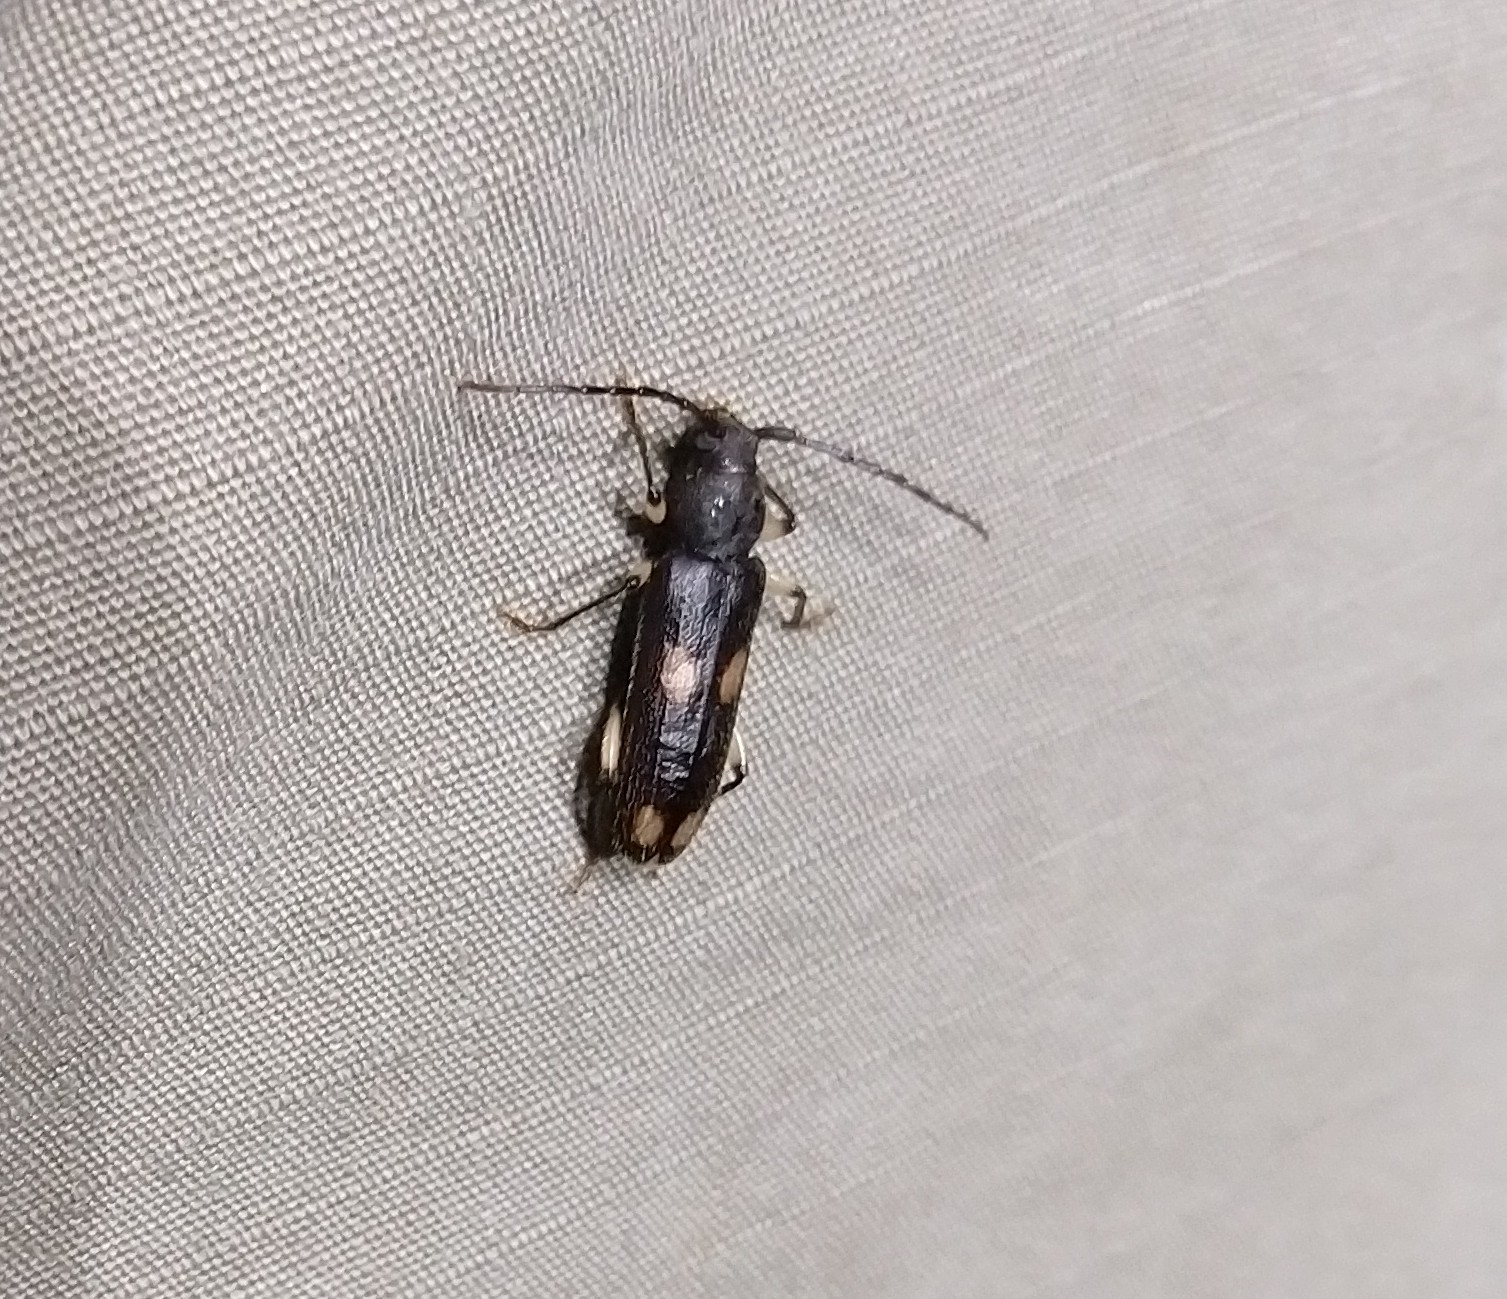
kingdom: Animalia
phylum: Arthropoda
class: Insecta
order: Coleoptera
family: Cerambycidae
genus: Tylonotus
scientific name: Tylonotus bimaculatus
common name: Ash and privet borer
